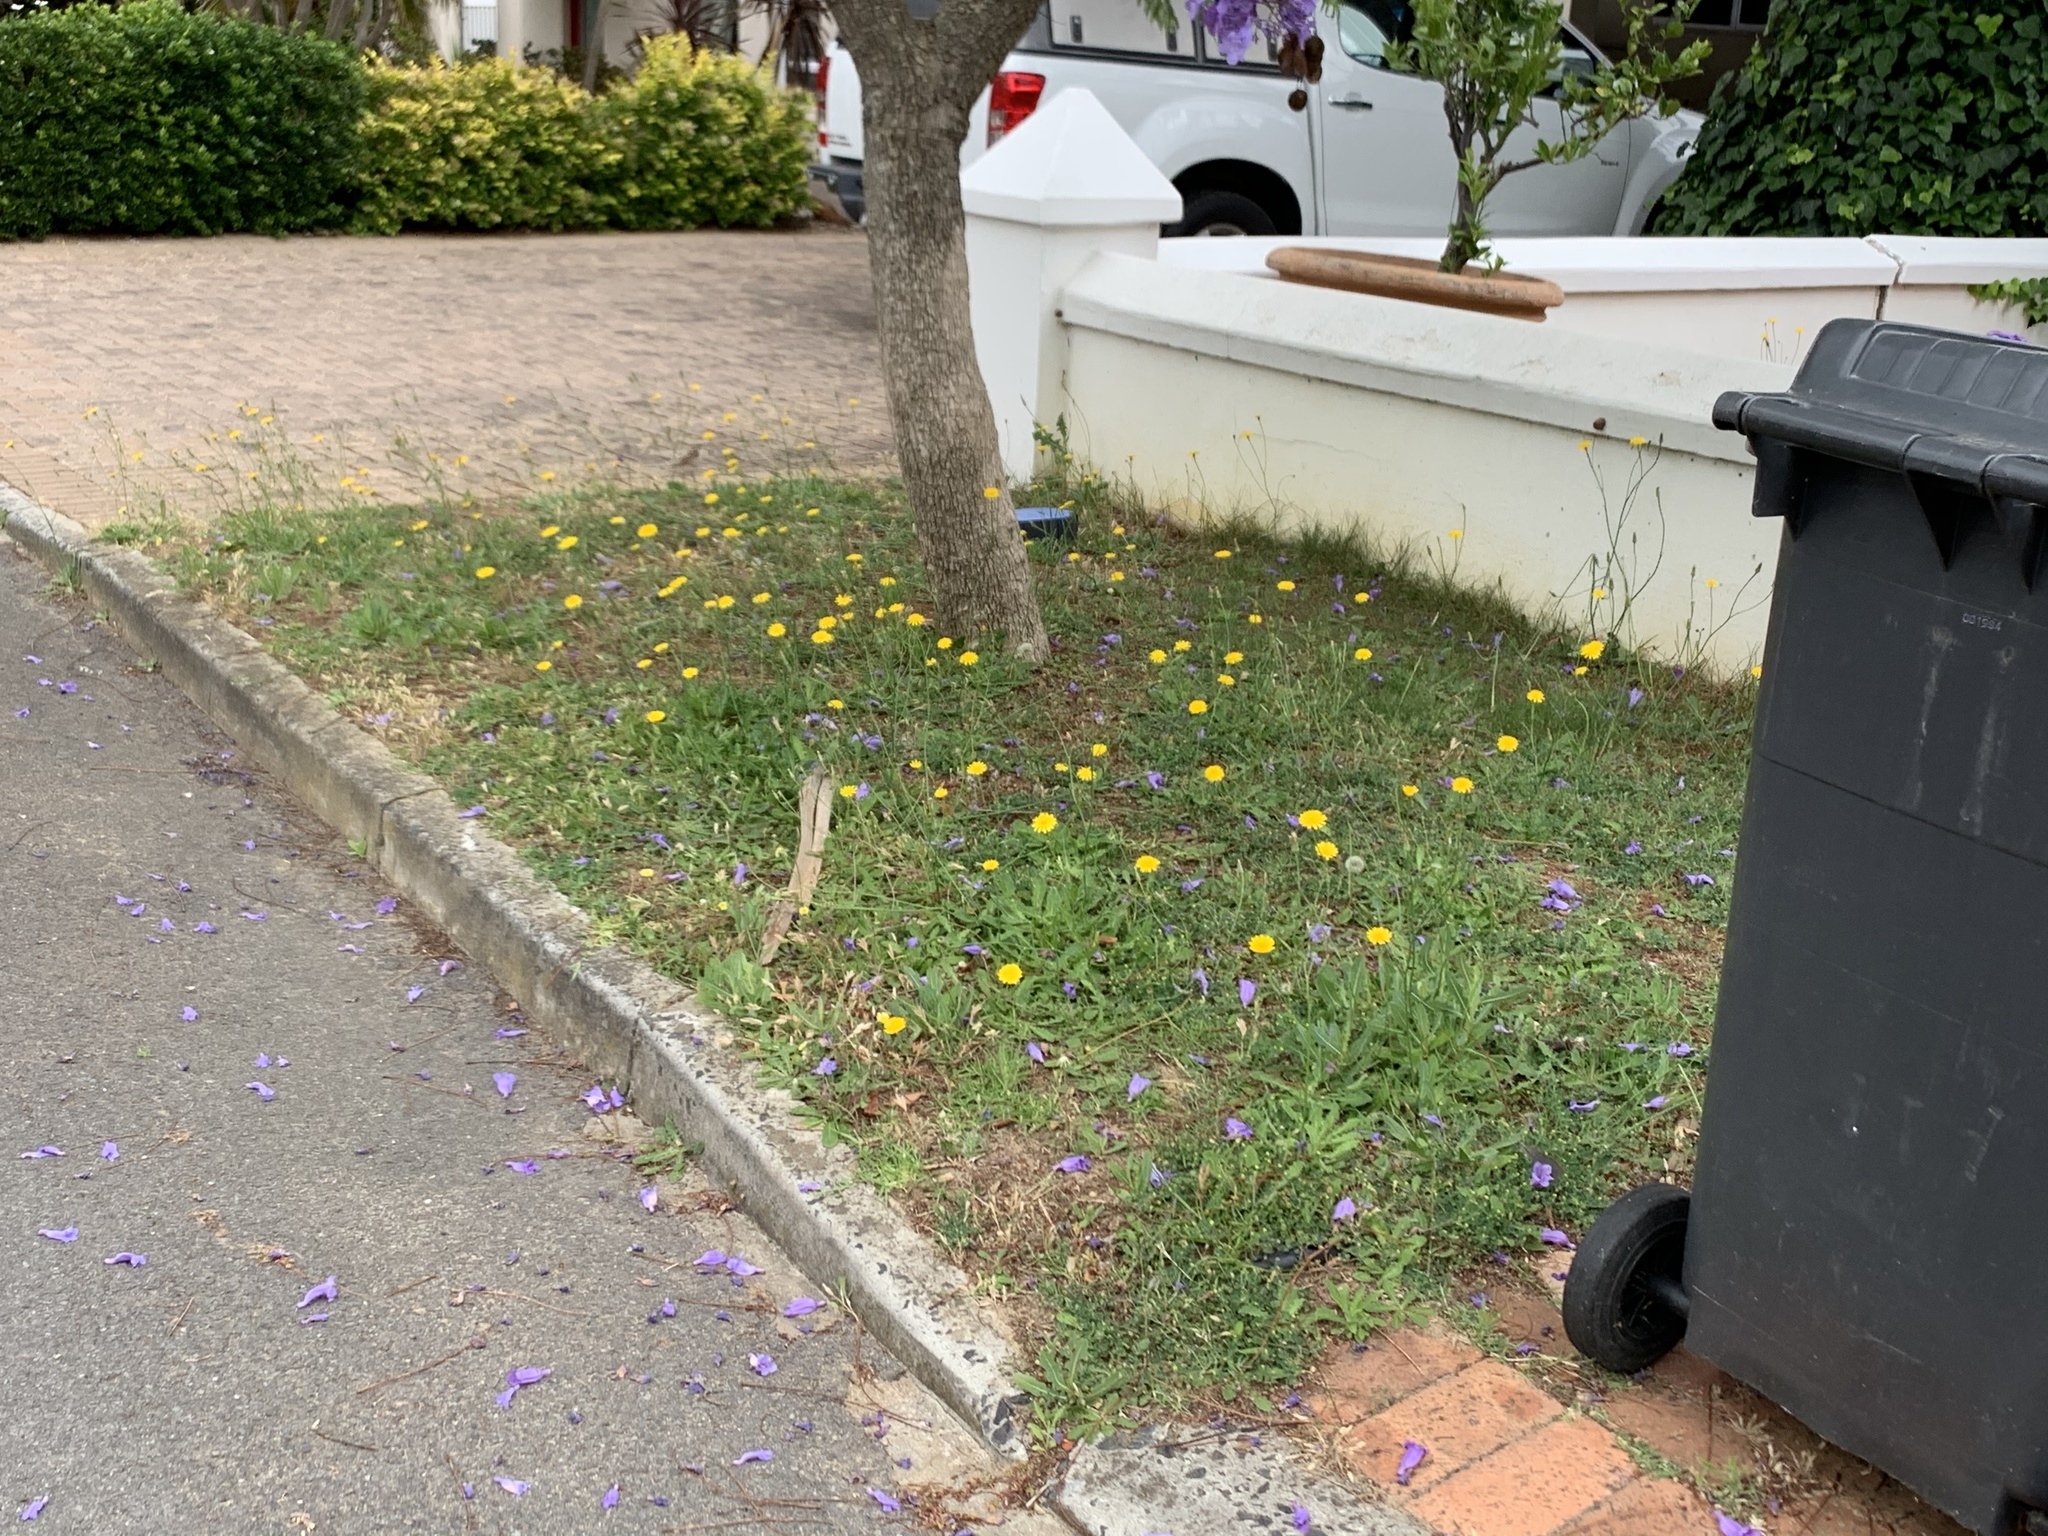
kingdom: Plantae
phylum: Tracheophyta
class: Magnoliopsida
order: Asterales
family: Asteraceae
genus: Hypochaeris
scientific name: Hypochaeris radicata
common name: Flatweed
